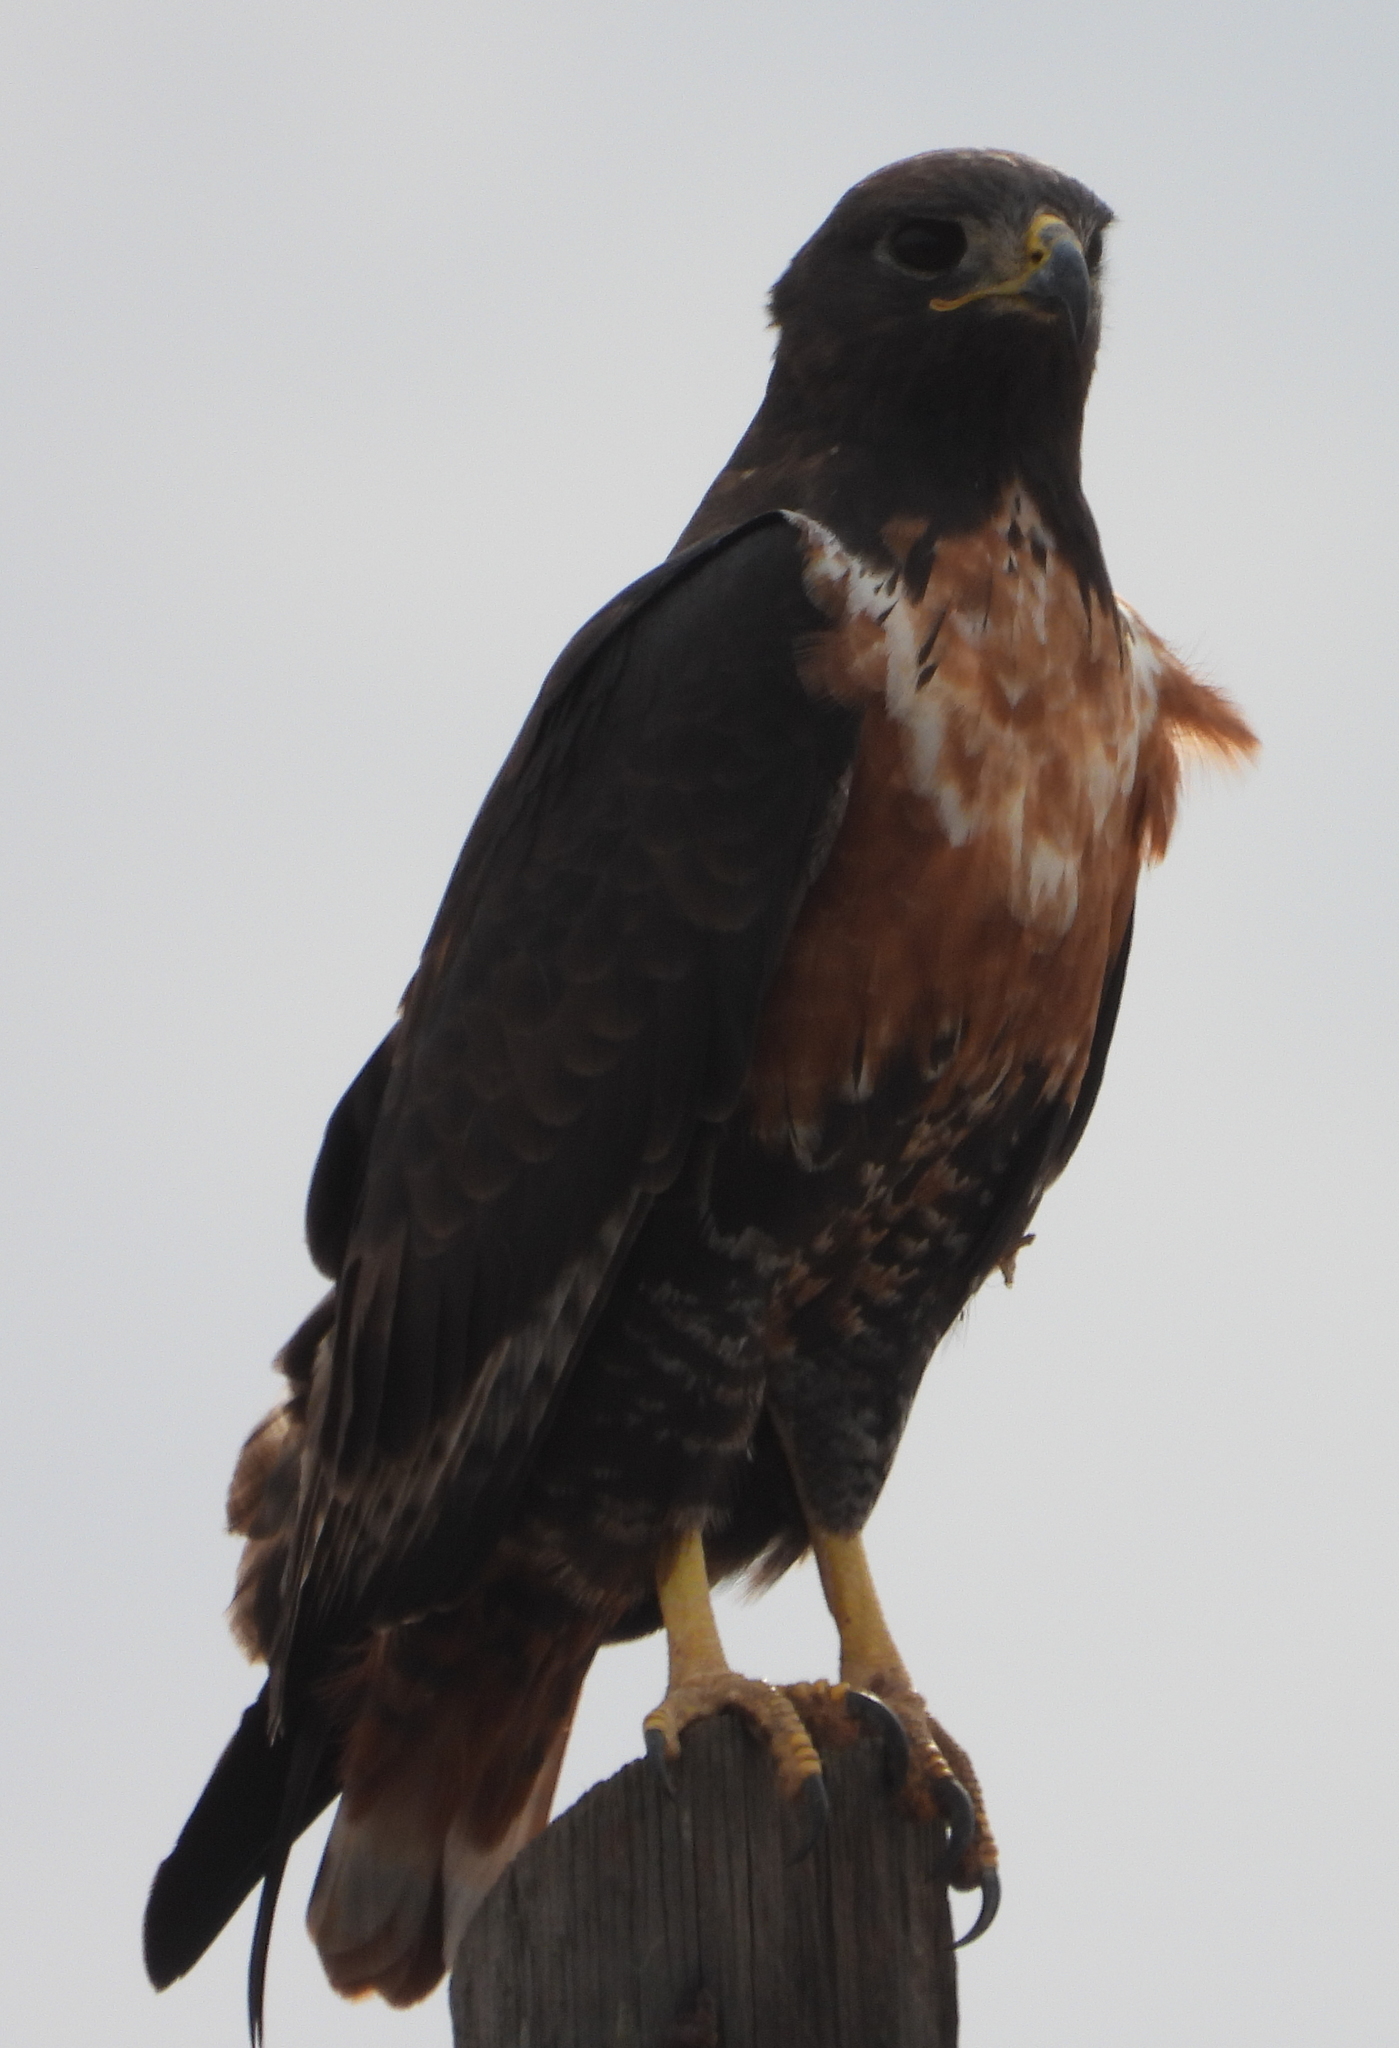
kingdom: Animalia
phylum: Chordata
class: Aves
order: Accipitriformes
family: Accipitridae
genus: Buteo
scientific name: Buteo rufofuscus
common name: Jackal buzzard
